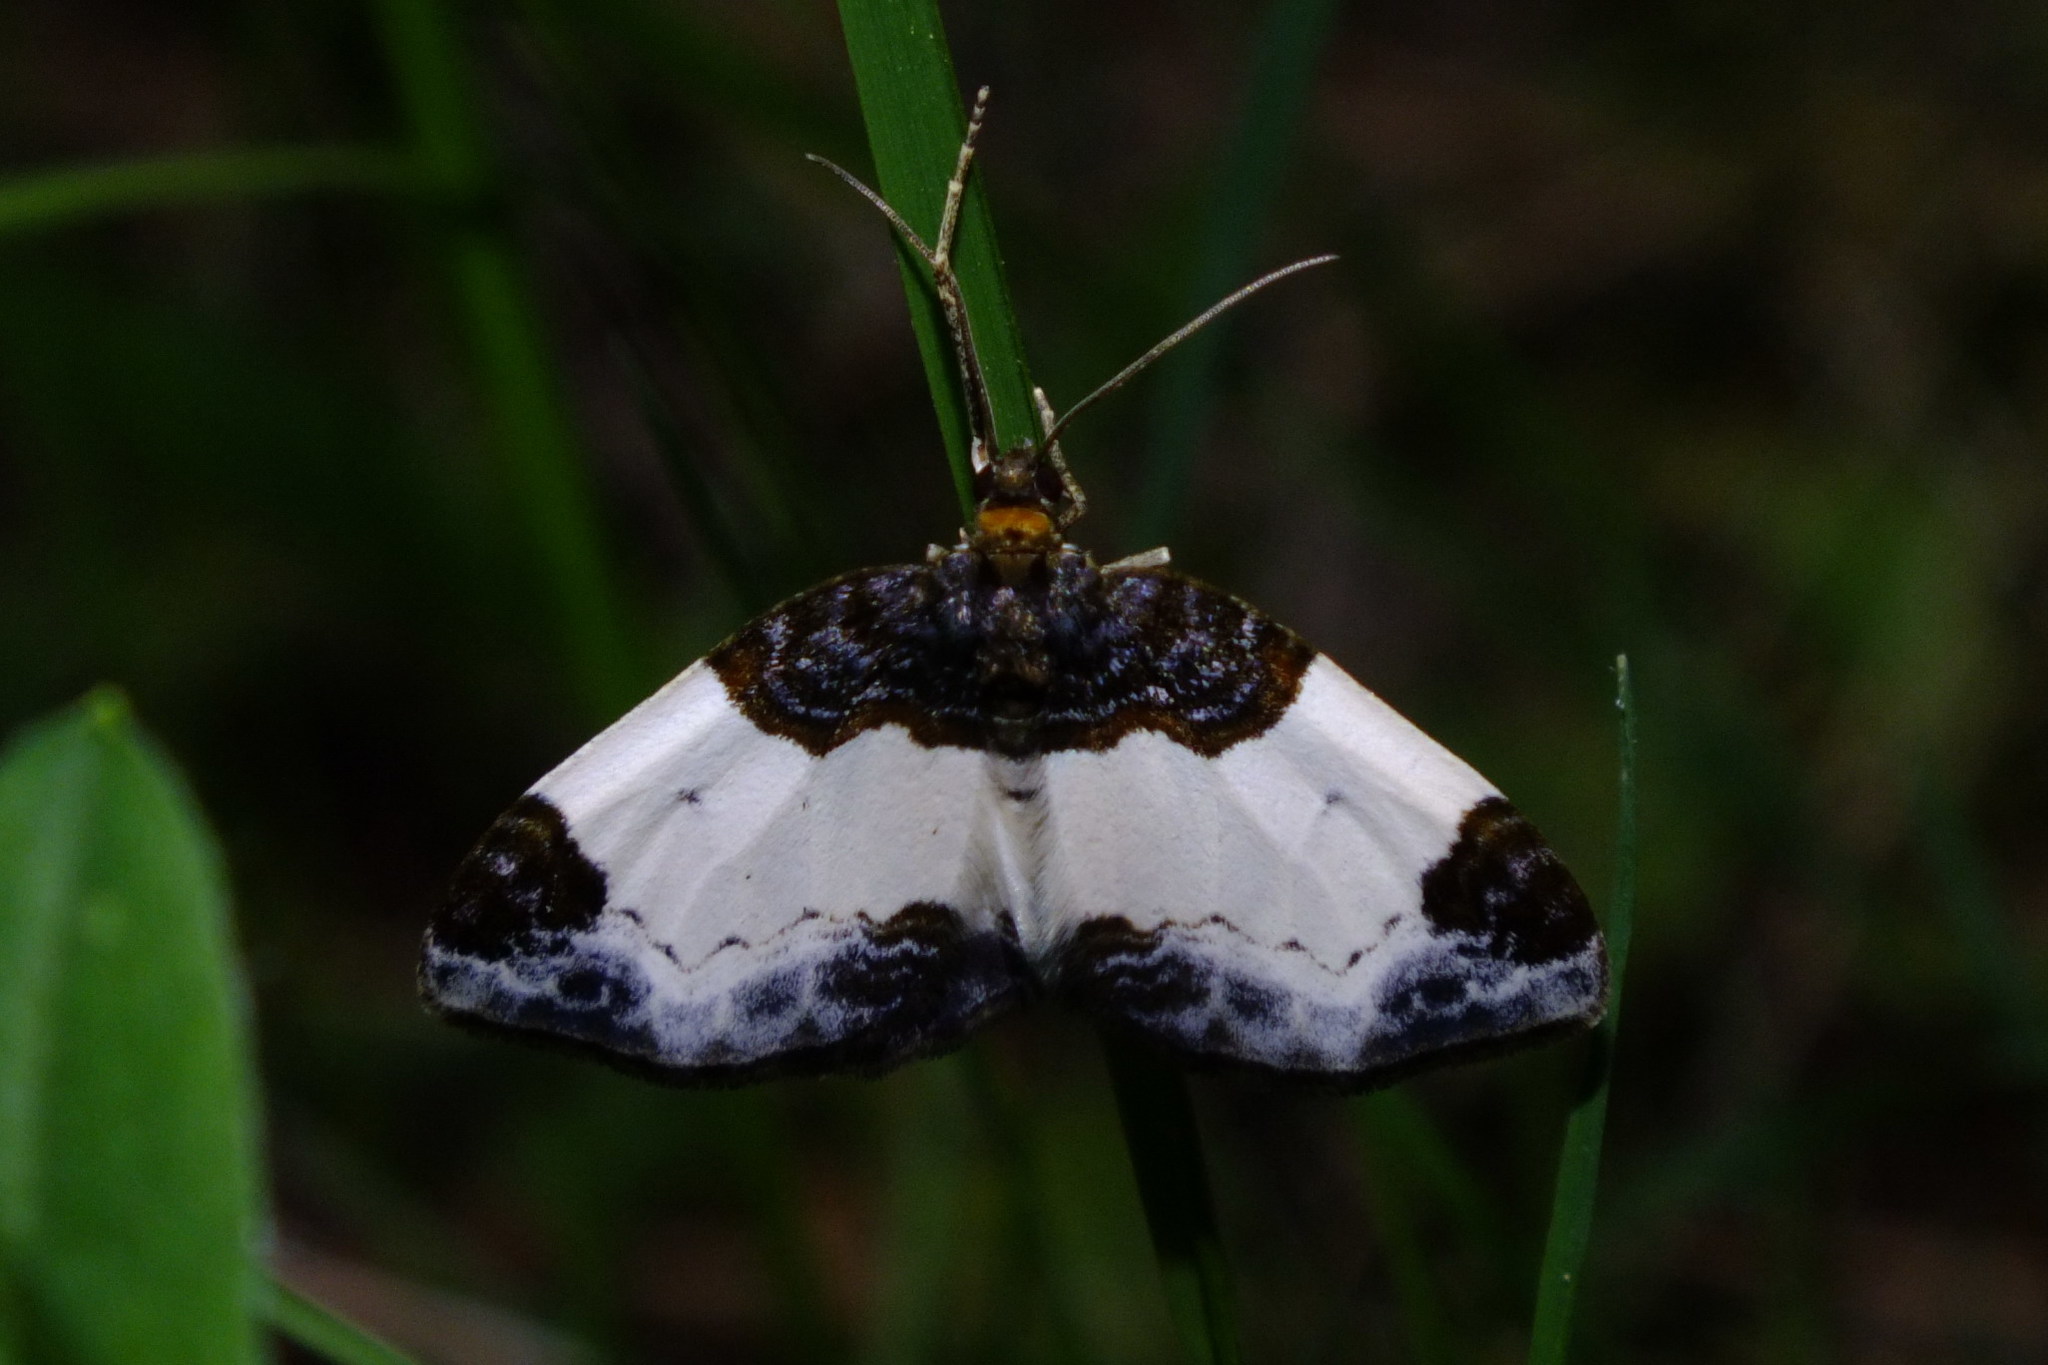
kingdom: Animalia
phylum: Arthropoda
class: Insecta
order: Lepidoptera
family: Geometridae
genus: Mesoleuca
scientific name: Mesoleuca albicillata
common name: Beautiful carpet
